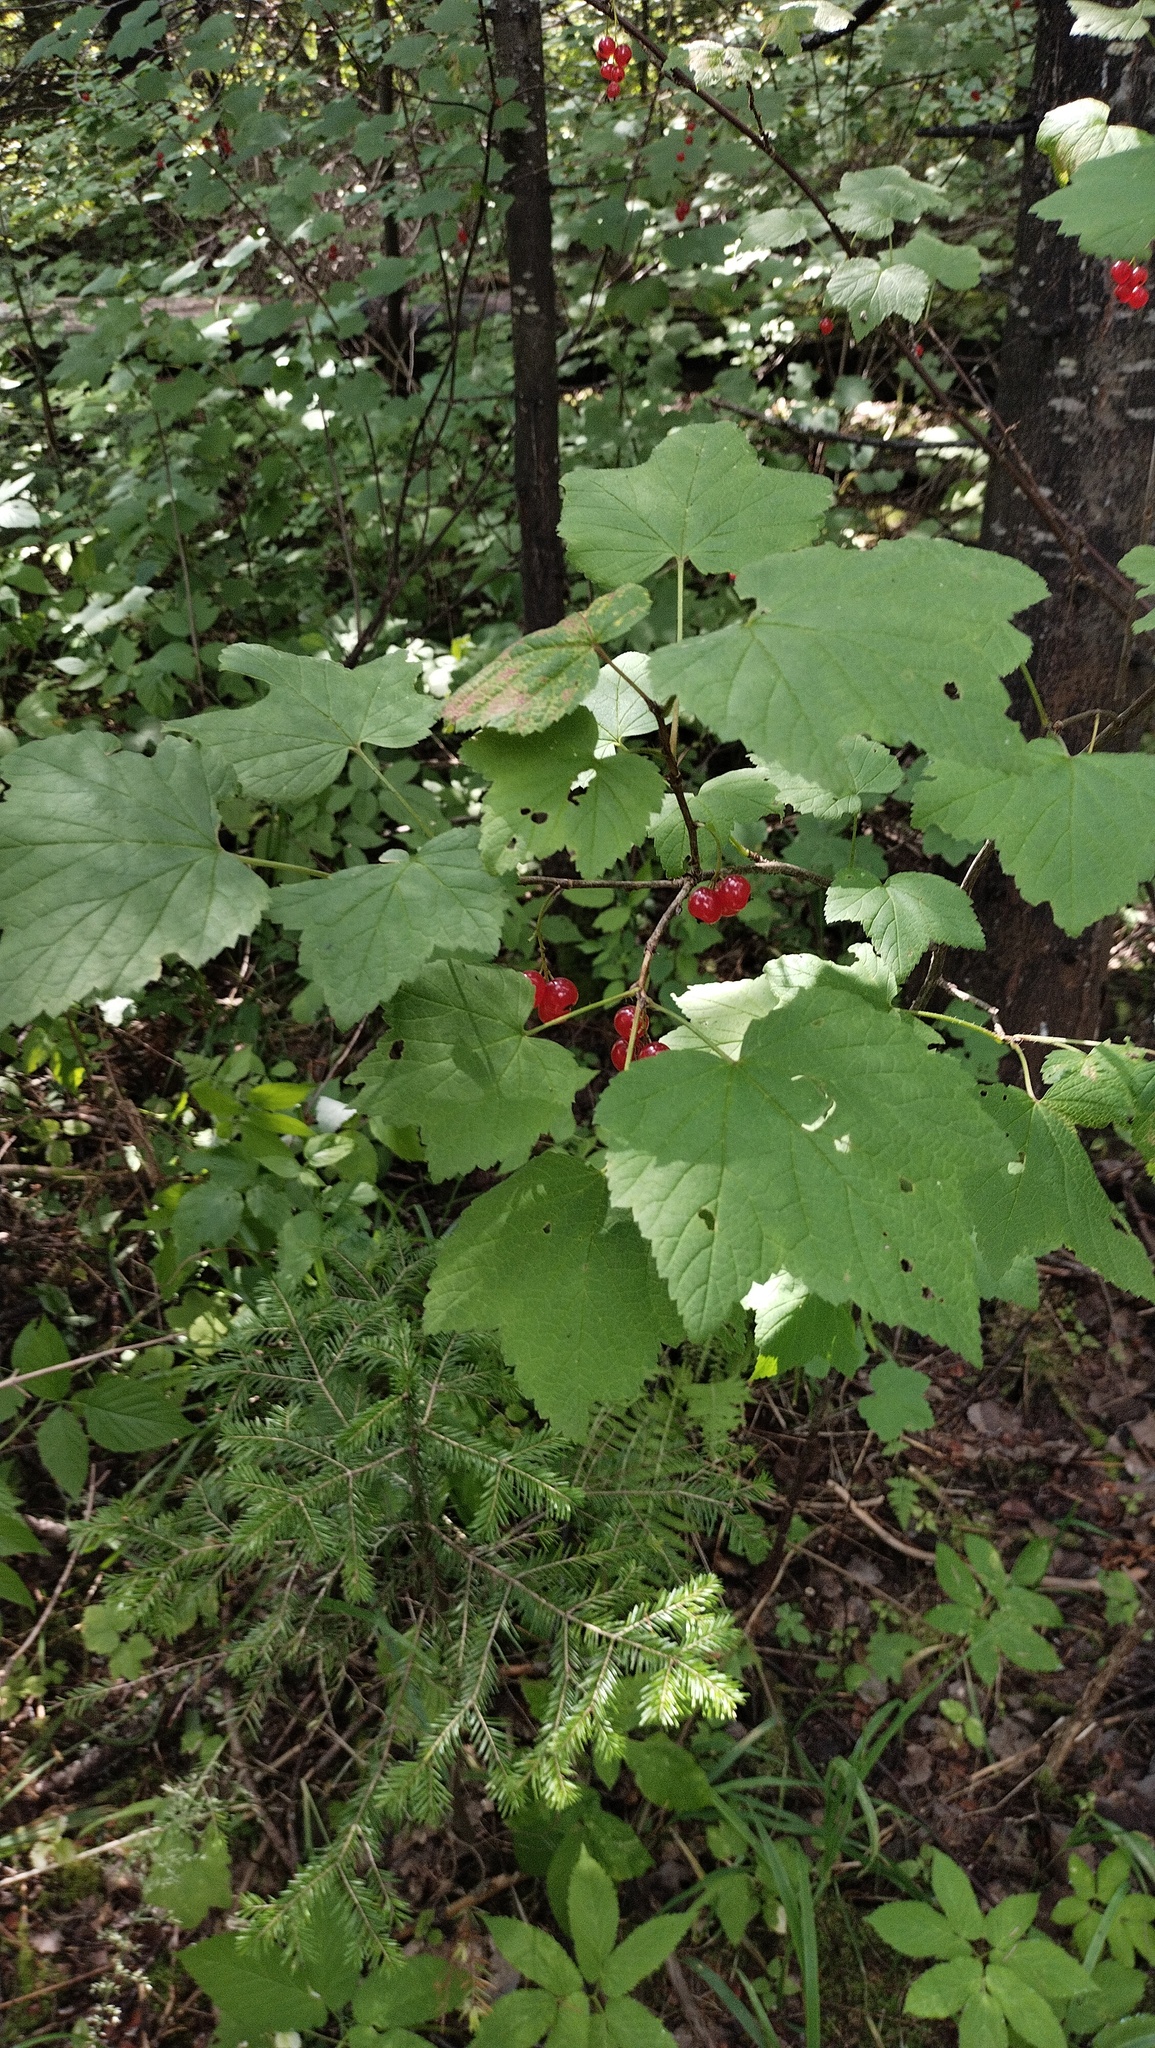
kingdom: Plantae
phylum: Tracheophyta
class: Magnoliopsida
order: Saxifragales
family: Grossulariaceae
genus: Ribes
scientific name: Ribes spicatum
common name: Downy currant
